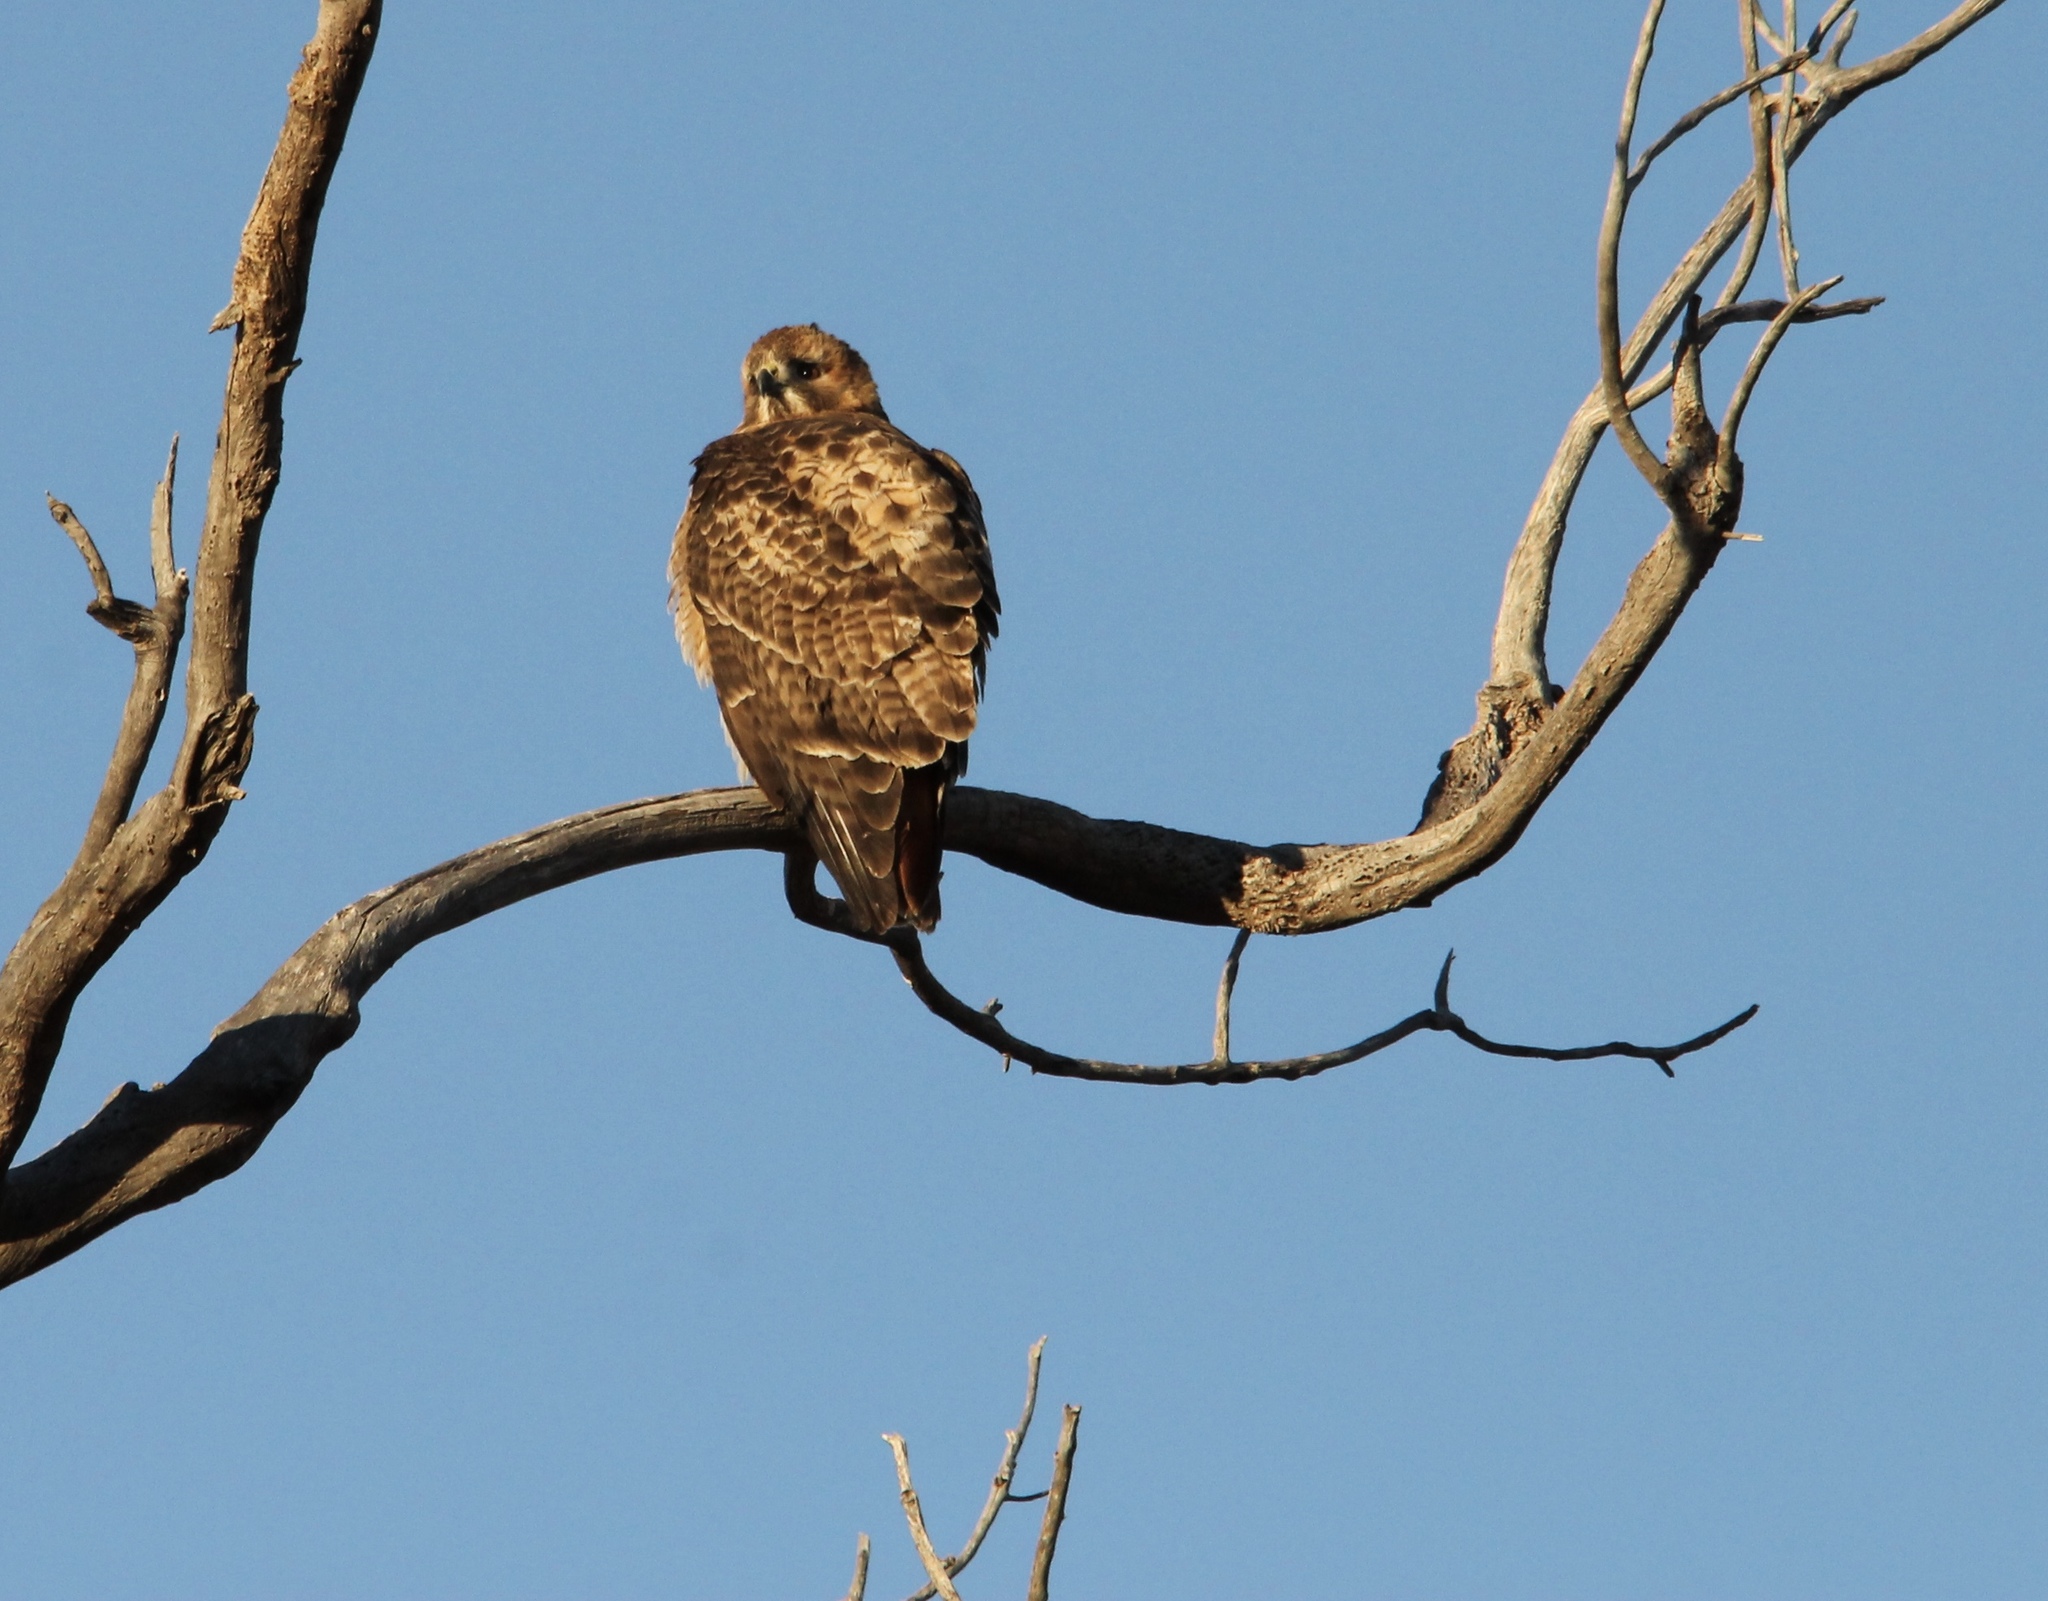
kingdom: Animalia
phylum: Chordata
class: Aves
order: Accipitriformes
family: Accipitridae
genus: Buteo
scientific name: Buteo jamaicensis
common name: Red-tailed hawk
